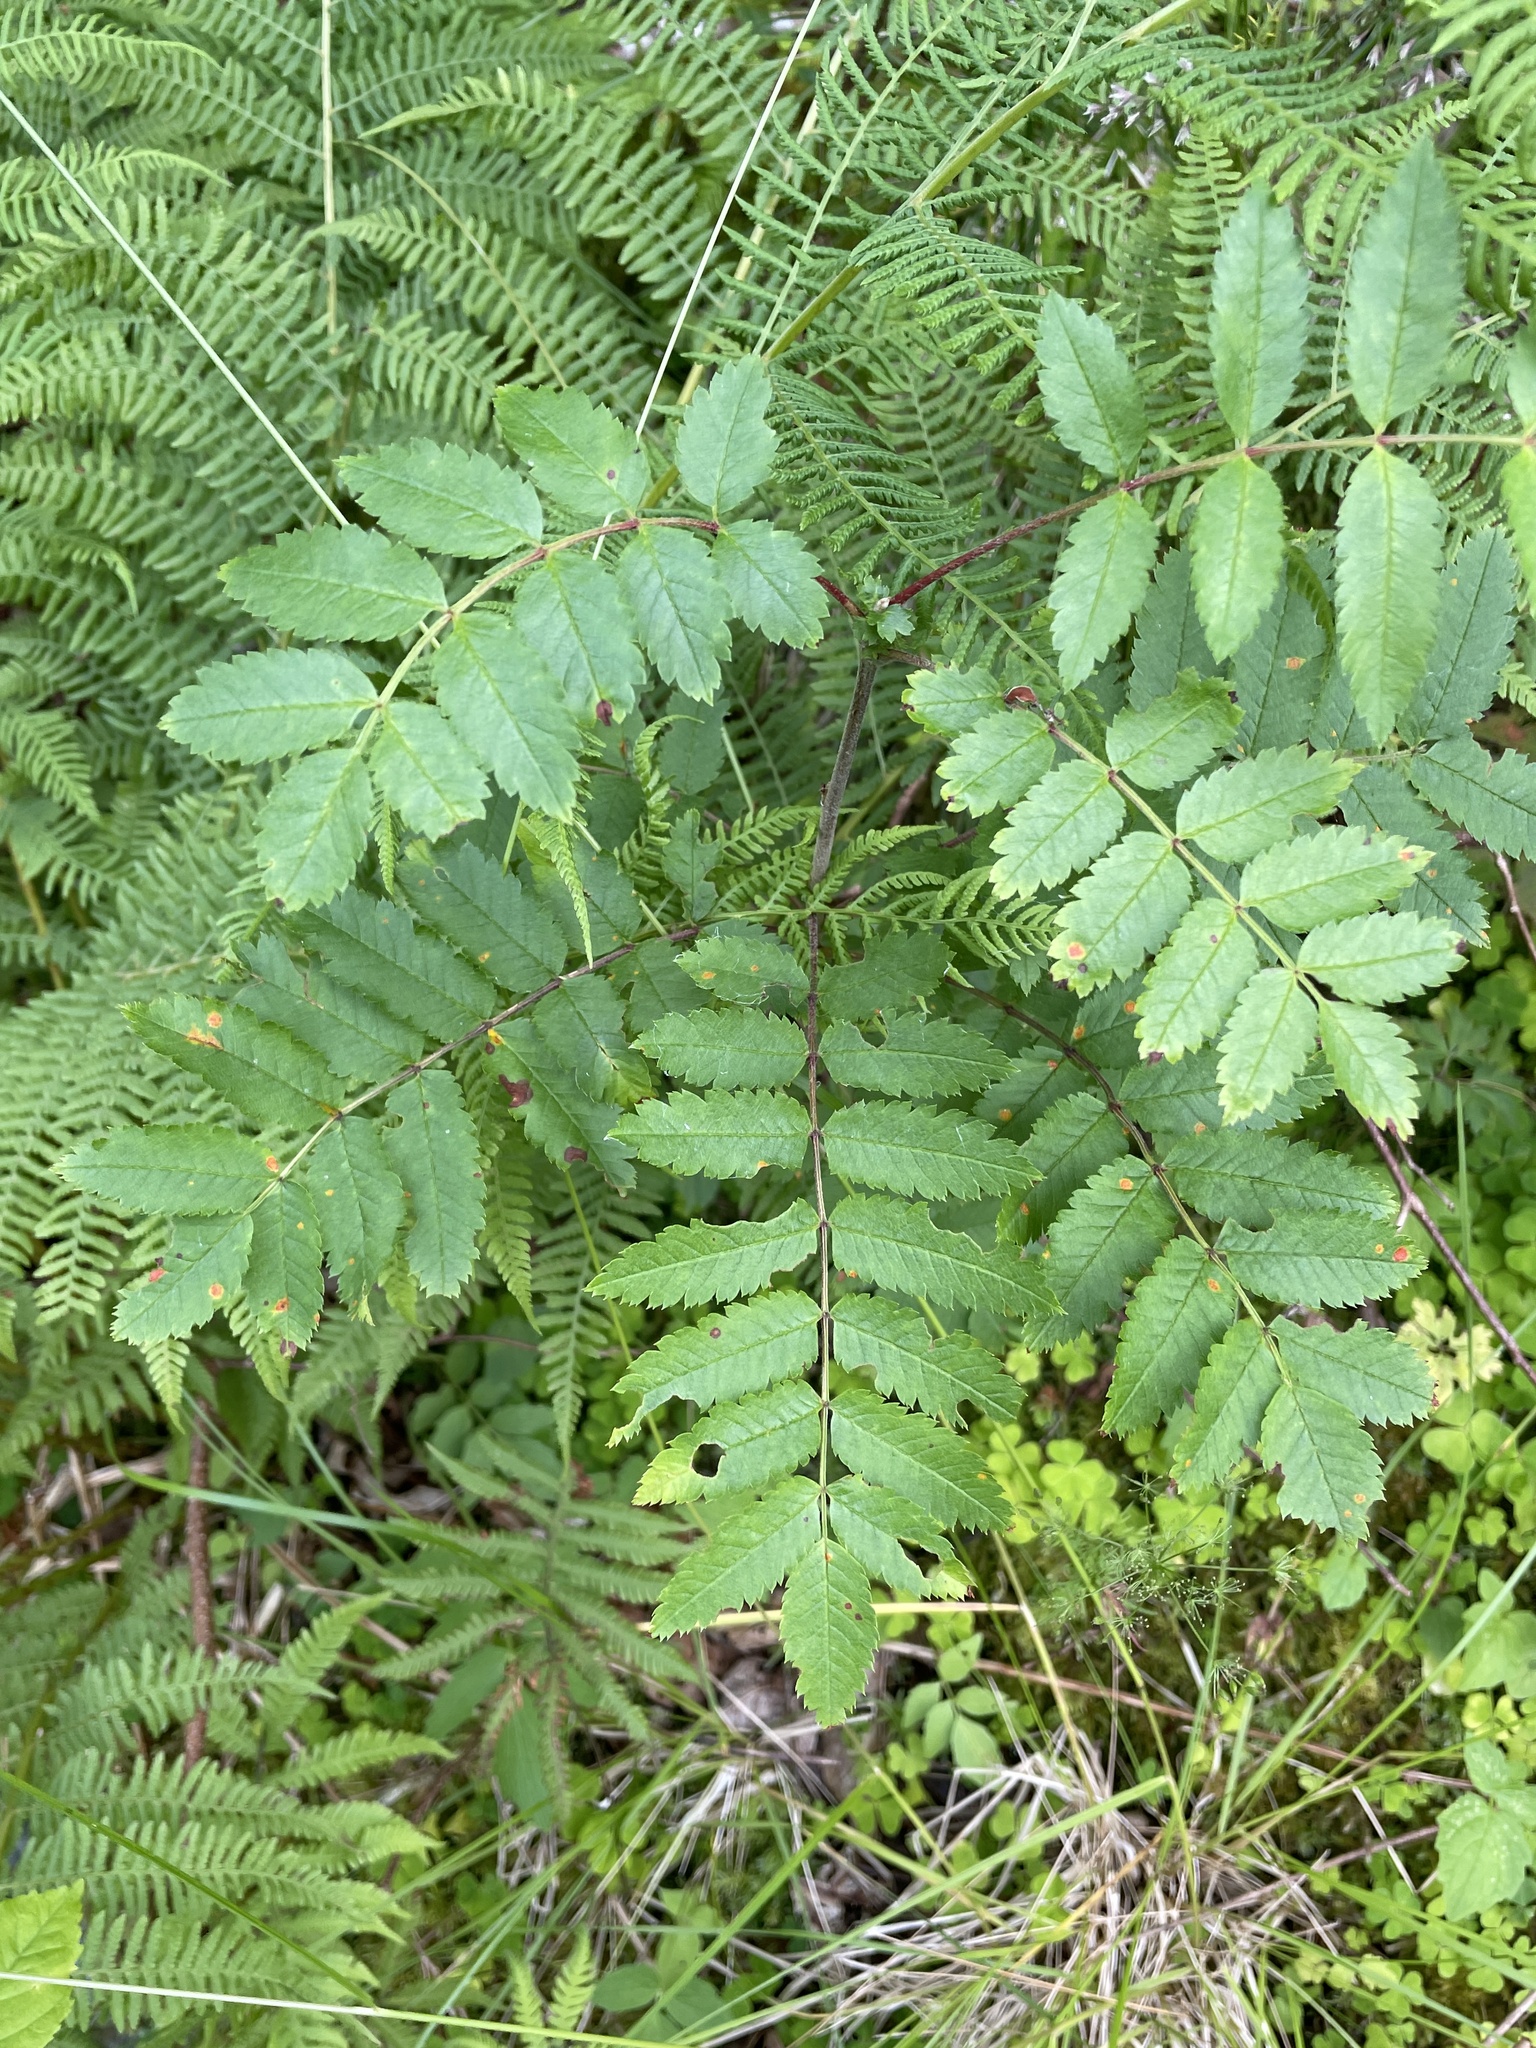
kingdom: Plantae
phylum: Tracheophyta
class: Magnoliopsida
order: Rosales
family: Rosaceae
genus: Sorbus
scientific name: Sorbus aucuparia
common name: Rowan
